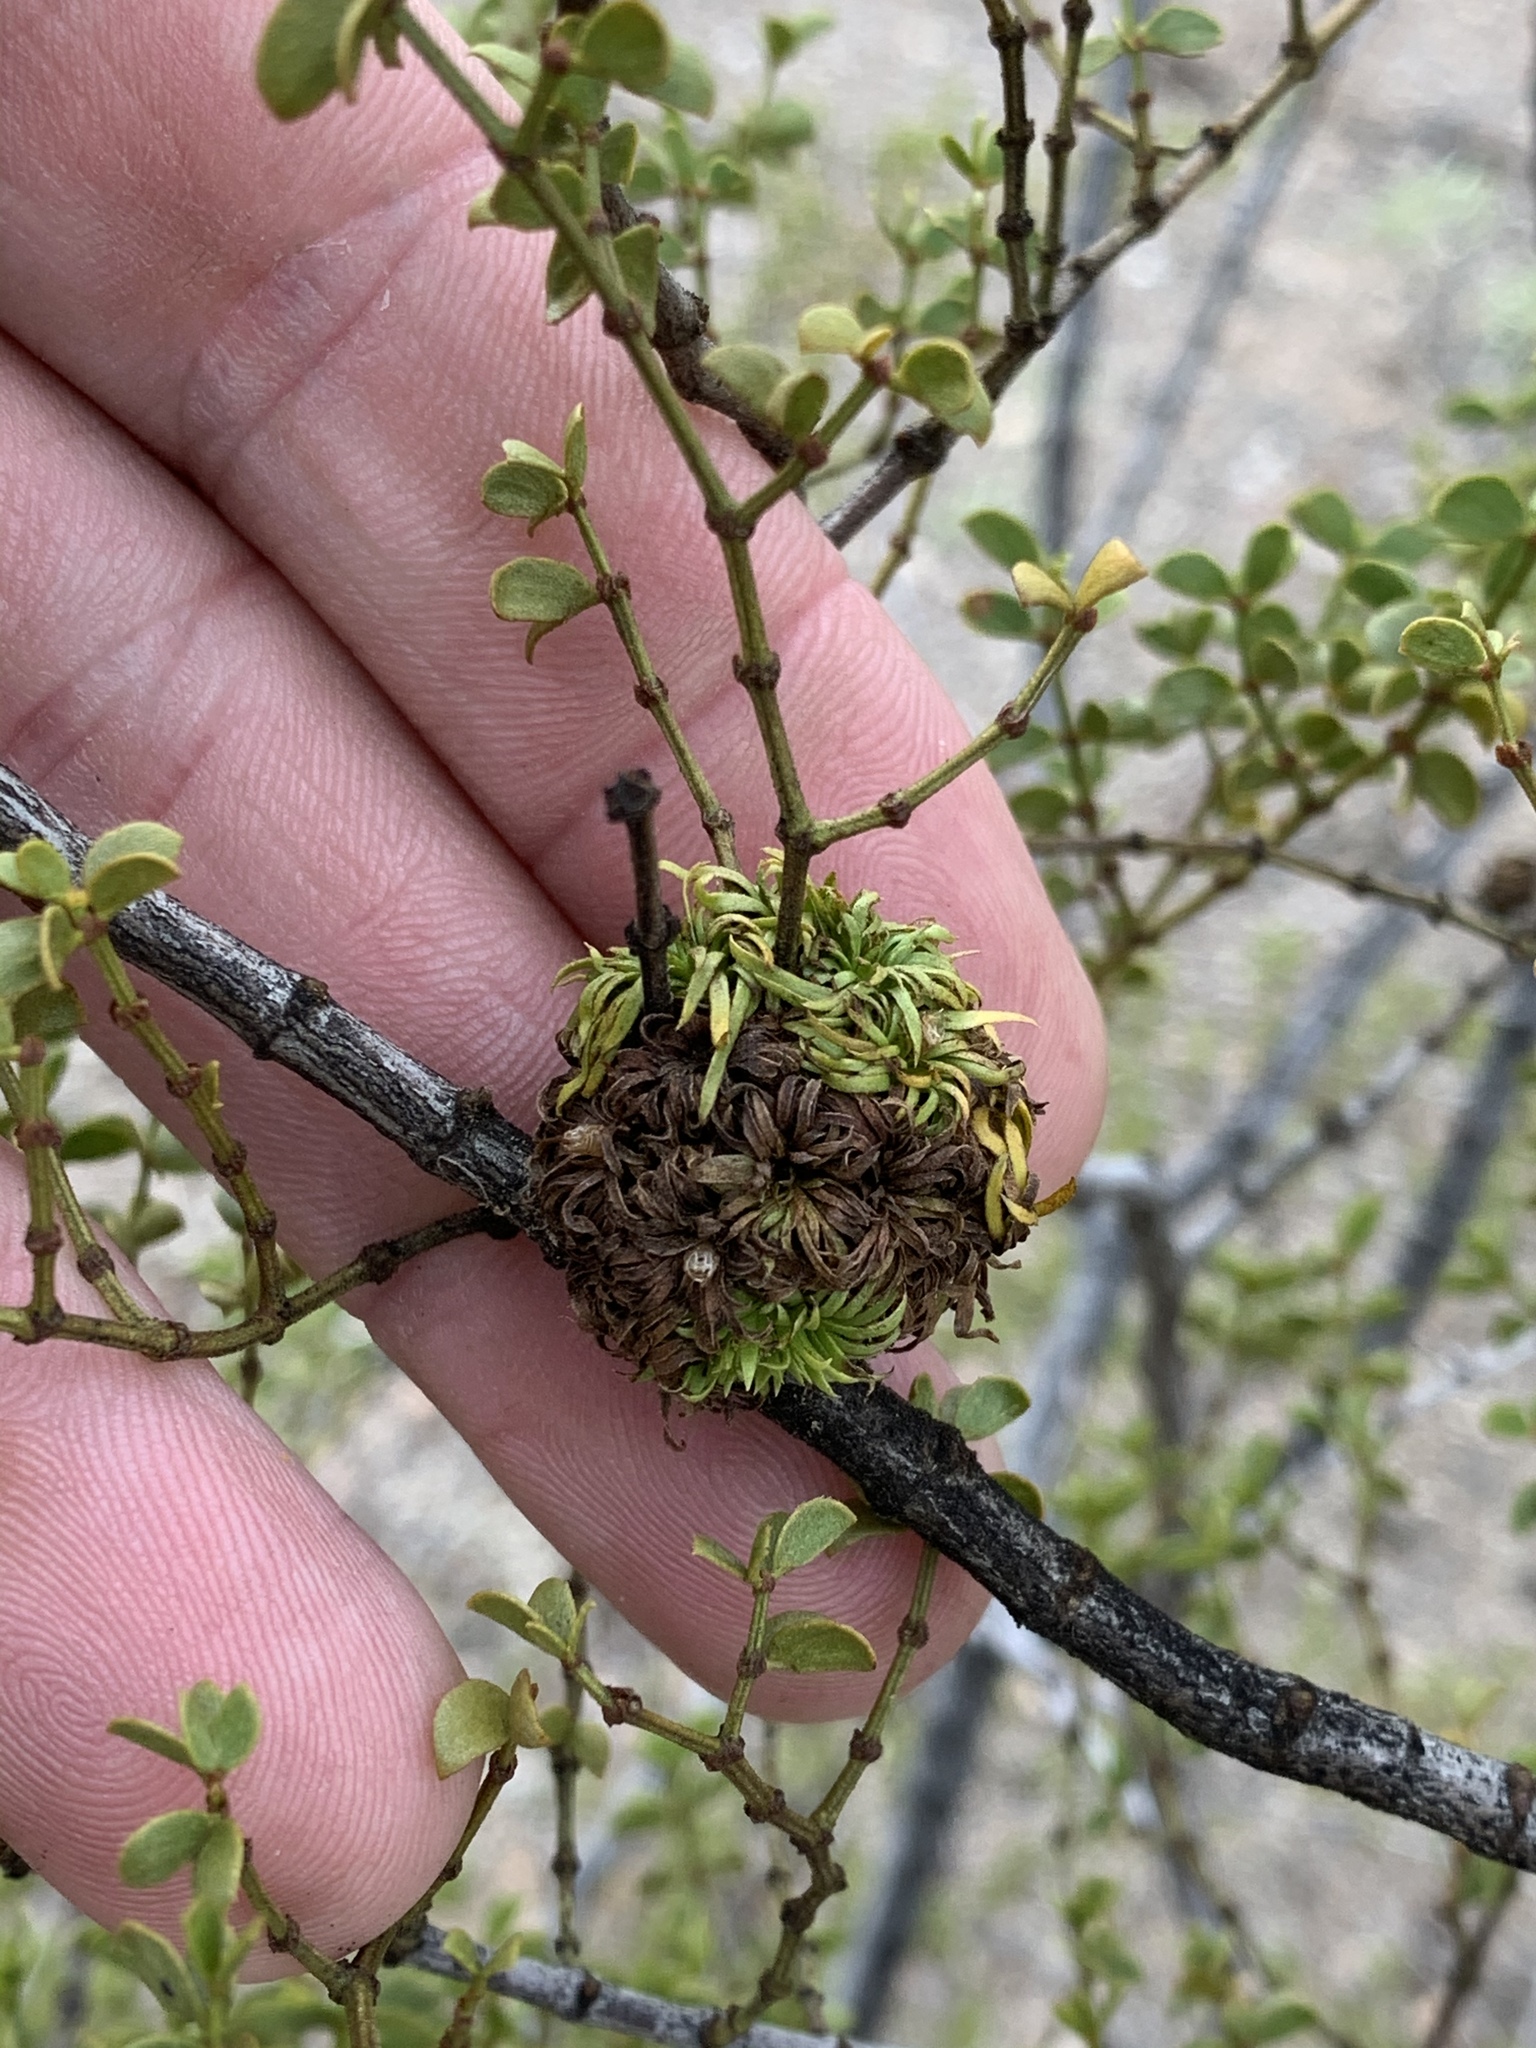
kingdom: Animalia
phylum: Arthropoda
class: Insecta
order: Diptera
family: Cecidomyiidae
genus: Asphondylia
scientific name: Asphondylia auripila
